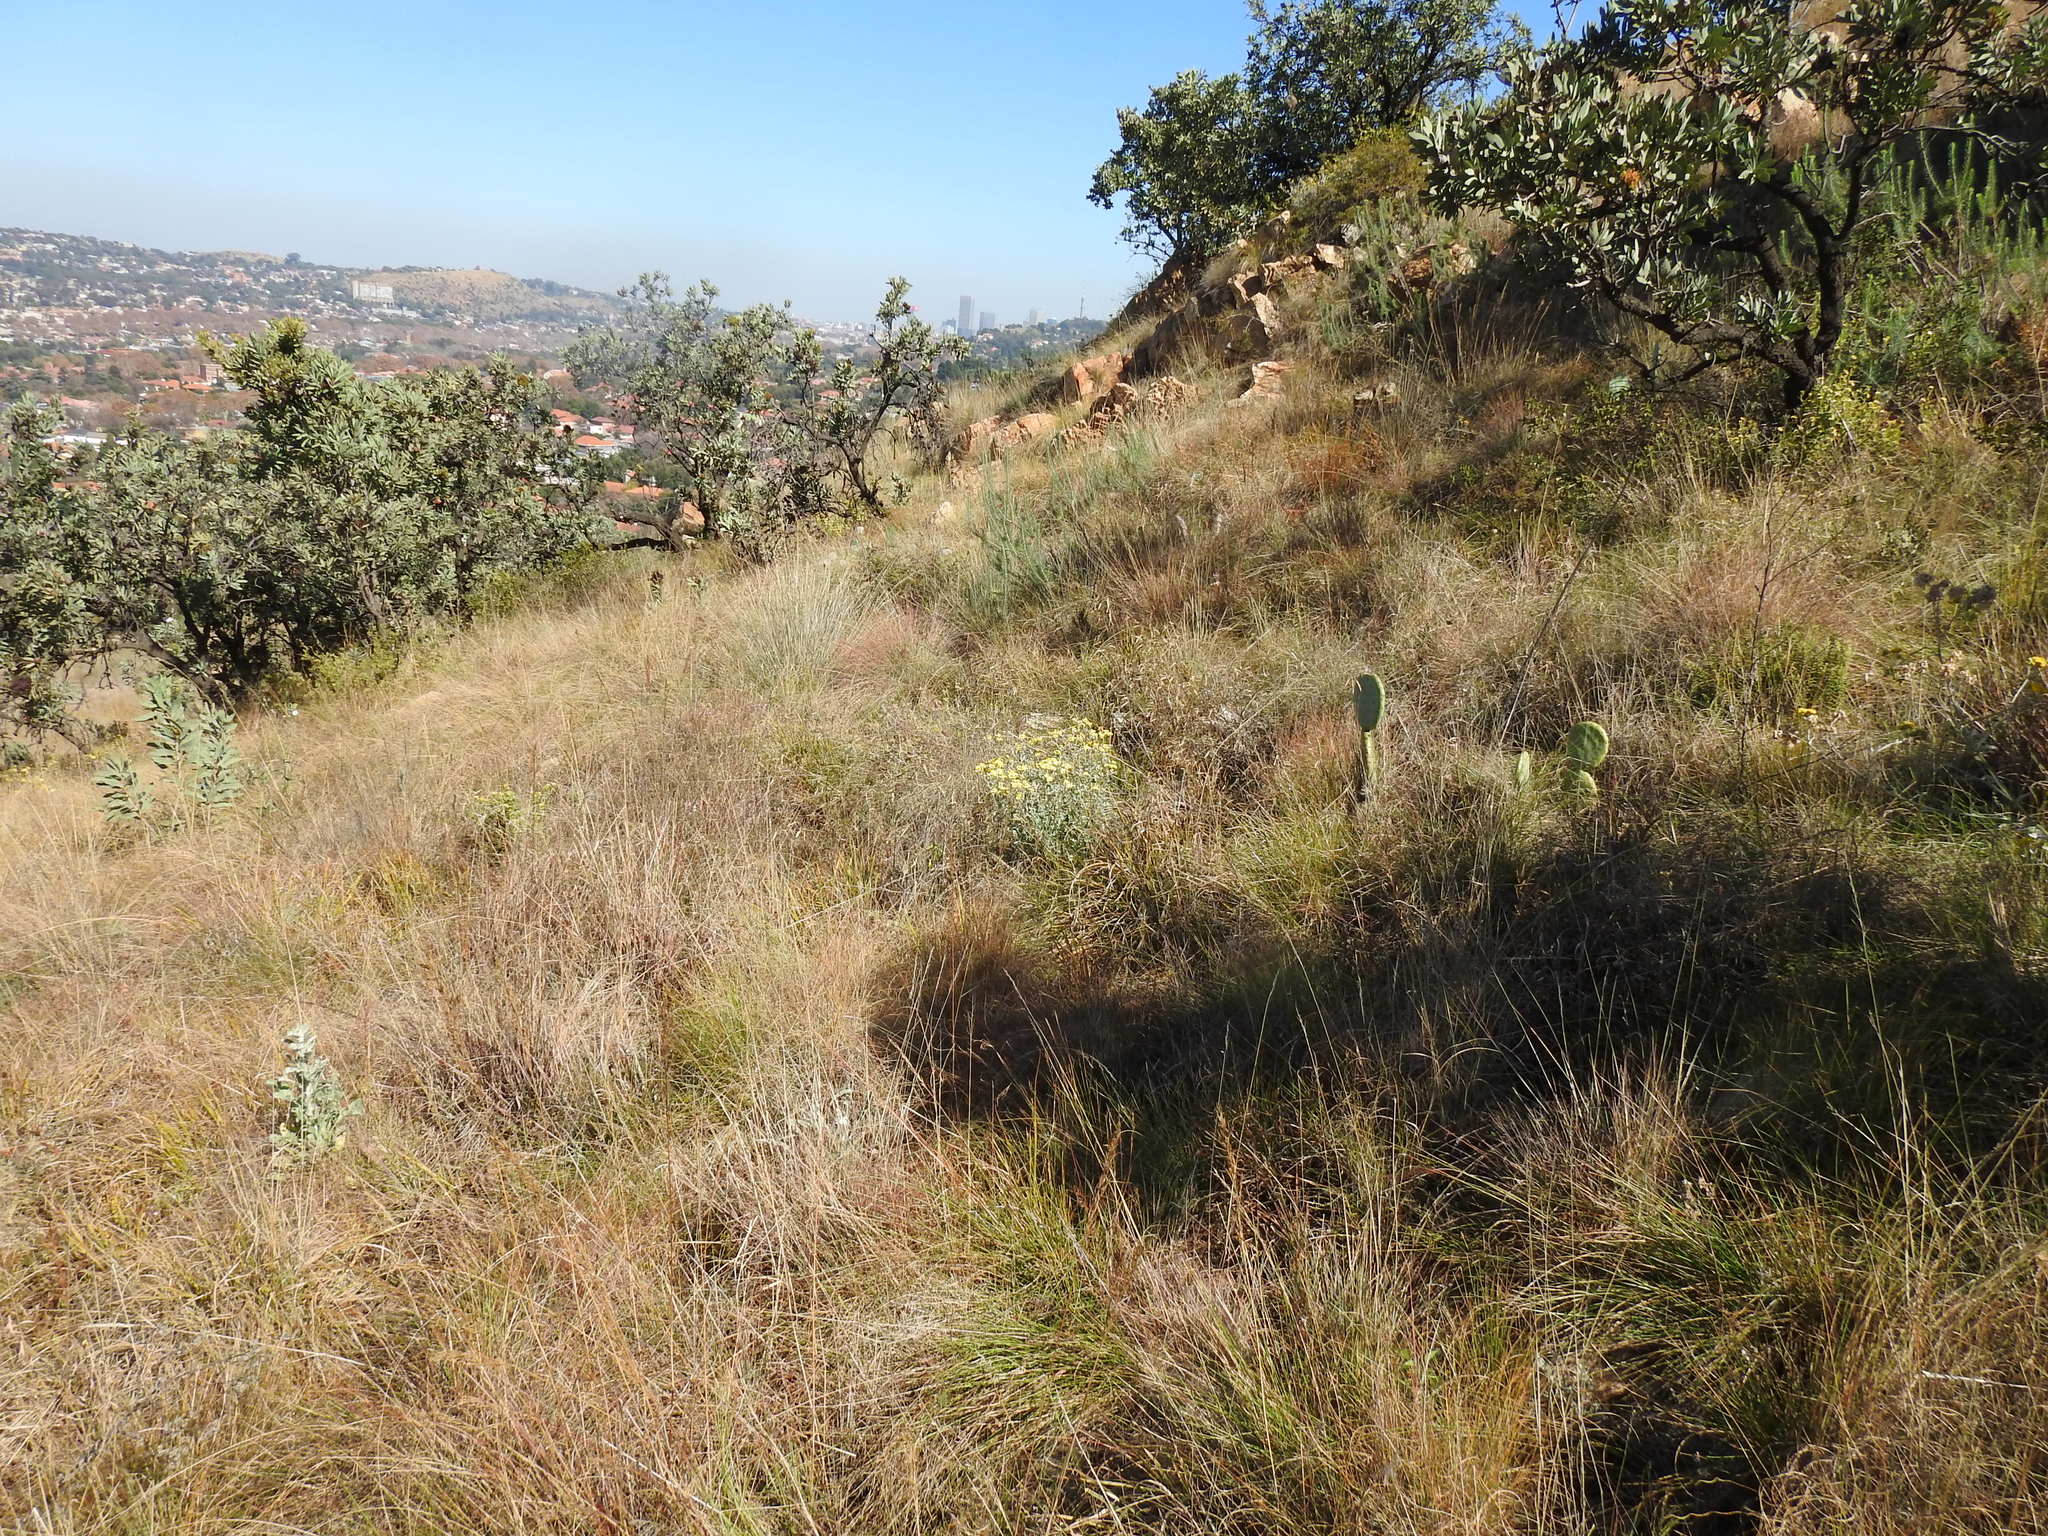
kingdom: Plantae
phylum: Tracheophyta
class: Magnoliopsida
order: Asterales
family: Asteraceae
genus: Cineraria
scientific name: Cineraria austrotransvaalensis
